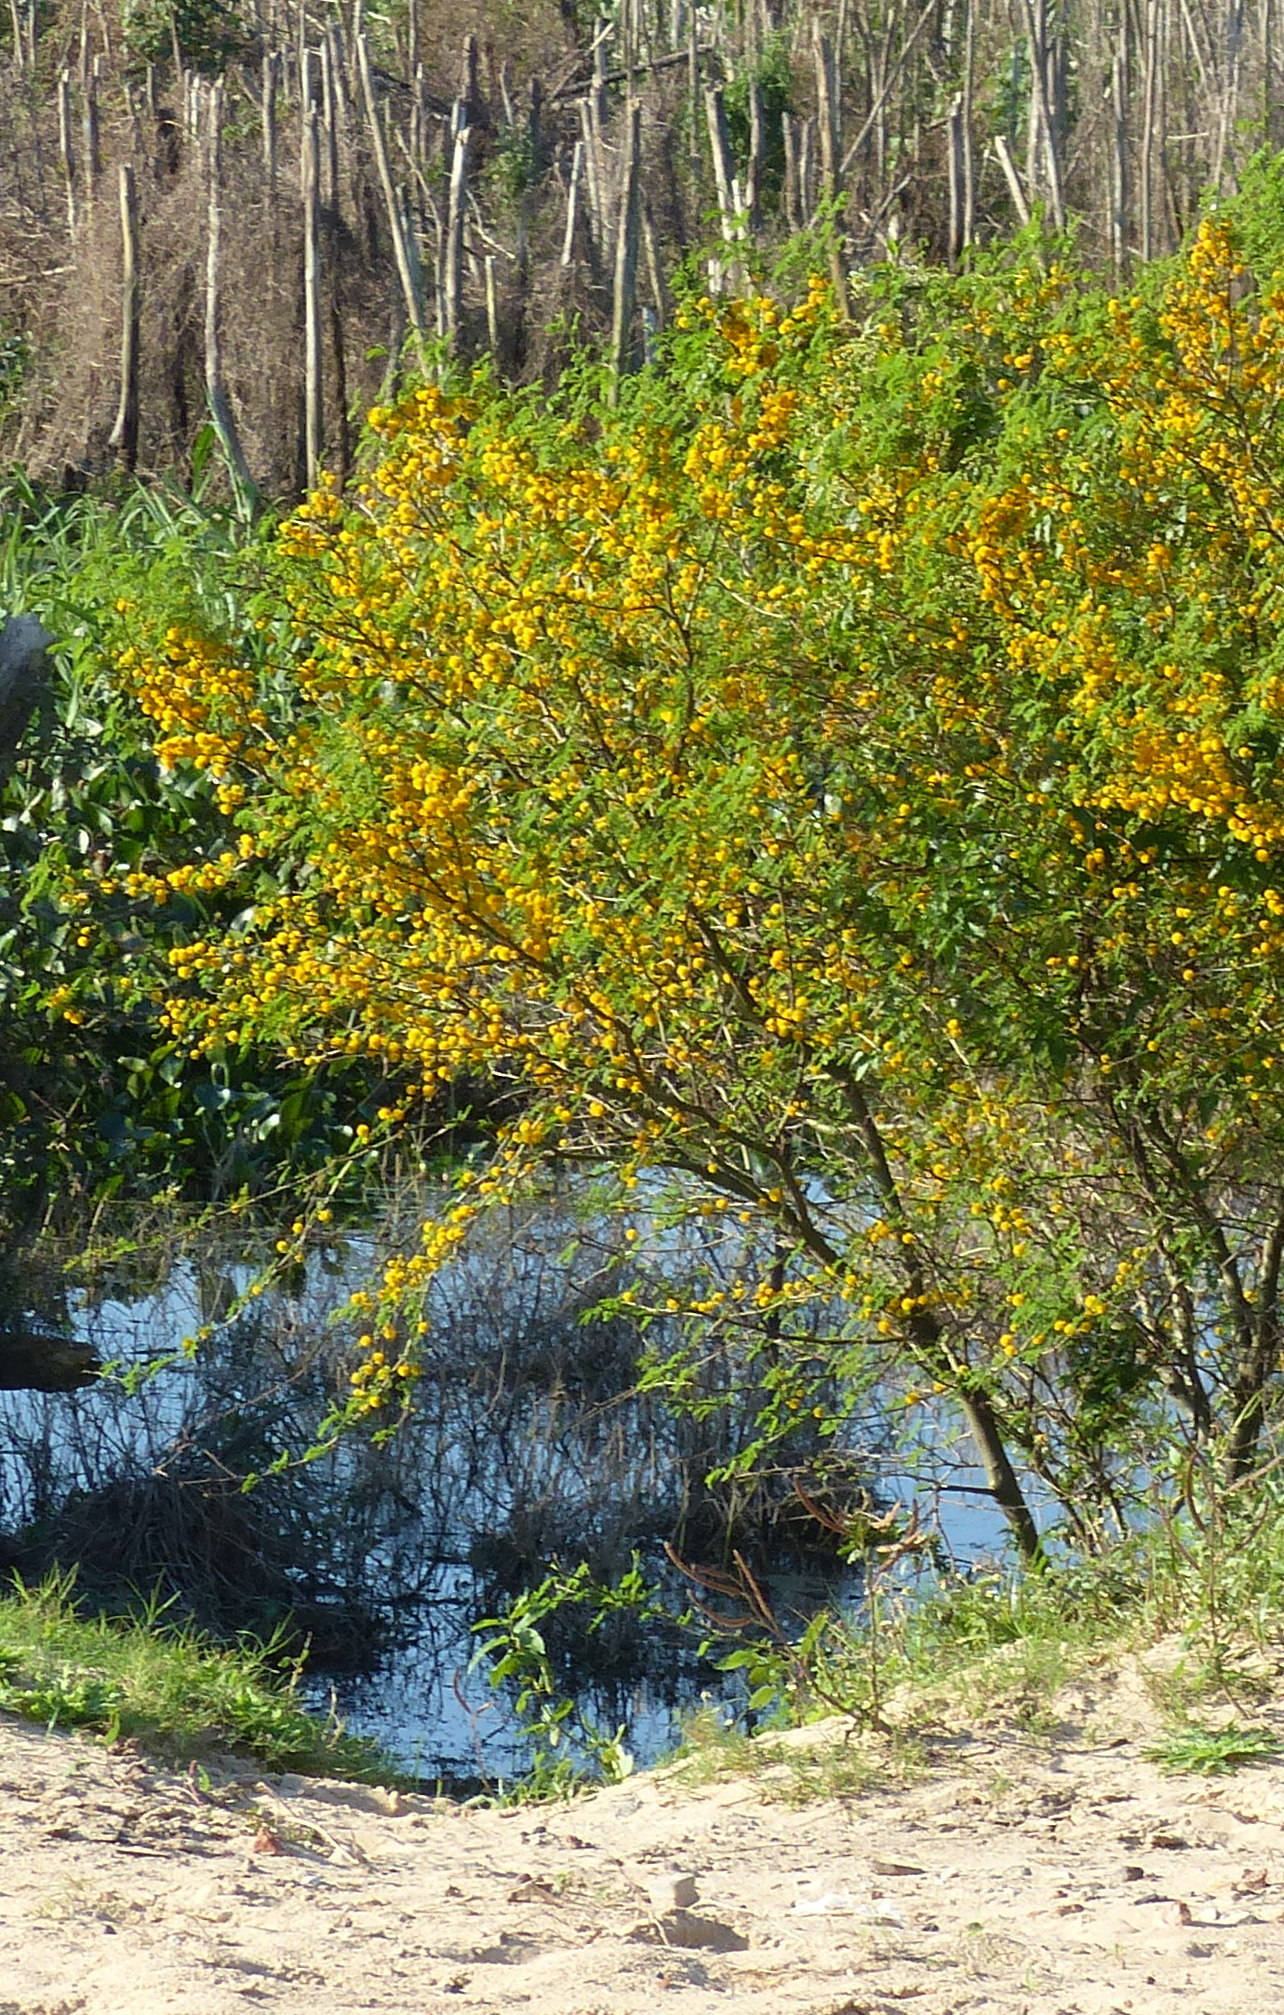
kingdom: Plantae
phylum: Tracheophyta
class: Magnoliopsida
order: Fabales
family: Fabaceae
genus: Vachellia
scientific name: Vachellia caven
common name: Roman cassie
